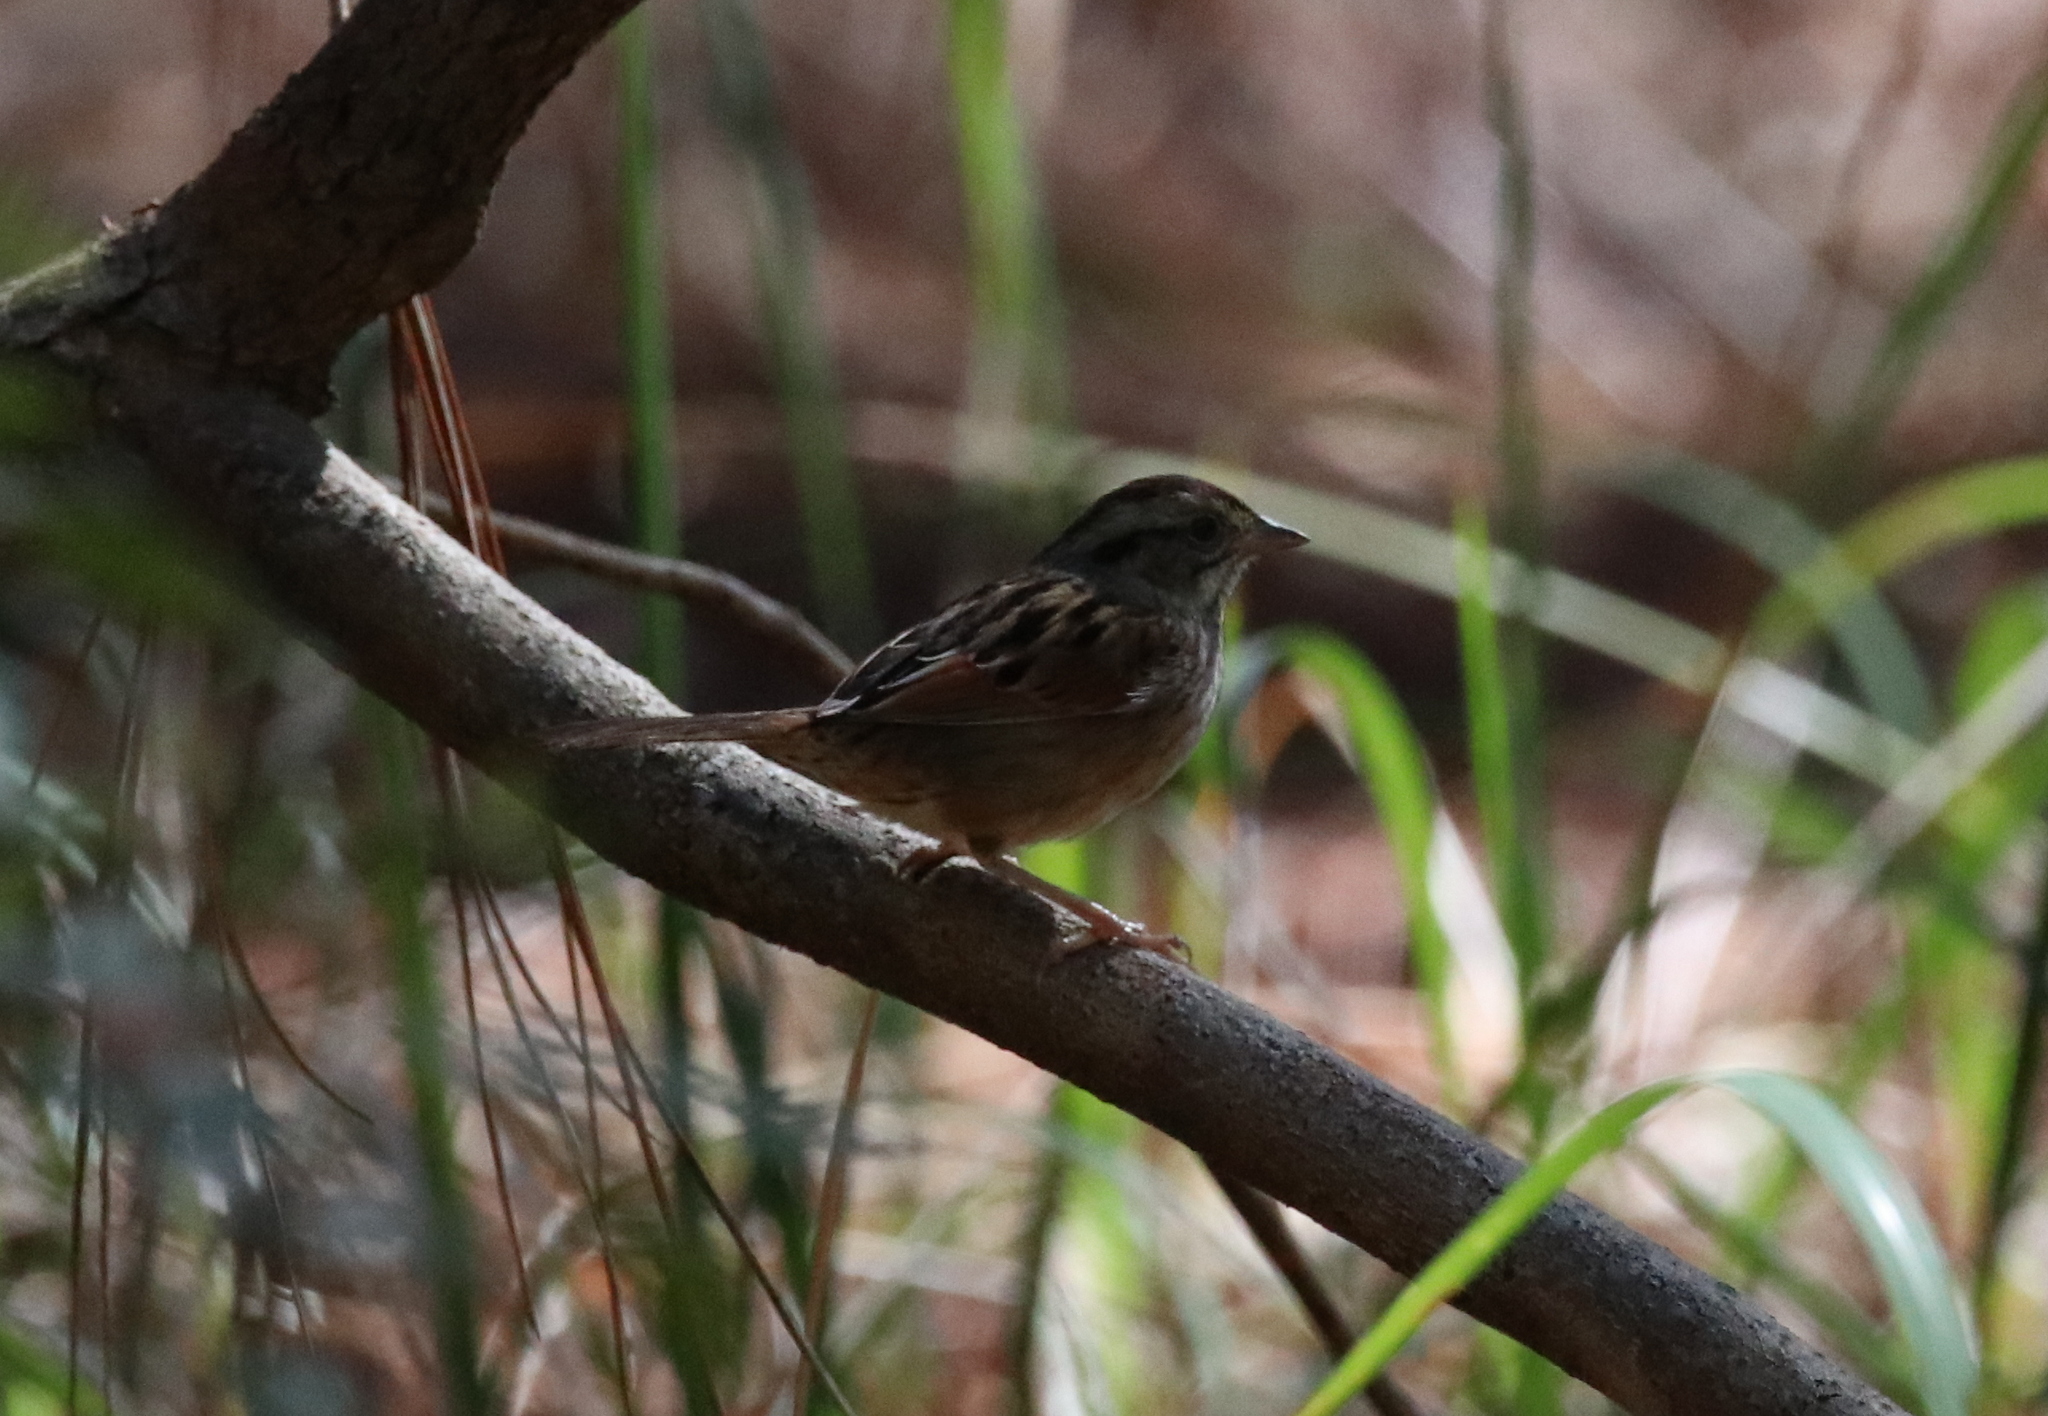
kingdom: Animalia
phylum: Chordata
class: Aves
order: Passeriformes
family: Passerellidae
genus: Melospiza
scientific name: Melospiza georgiana
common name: Swamp sparrow
